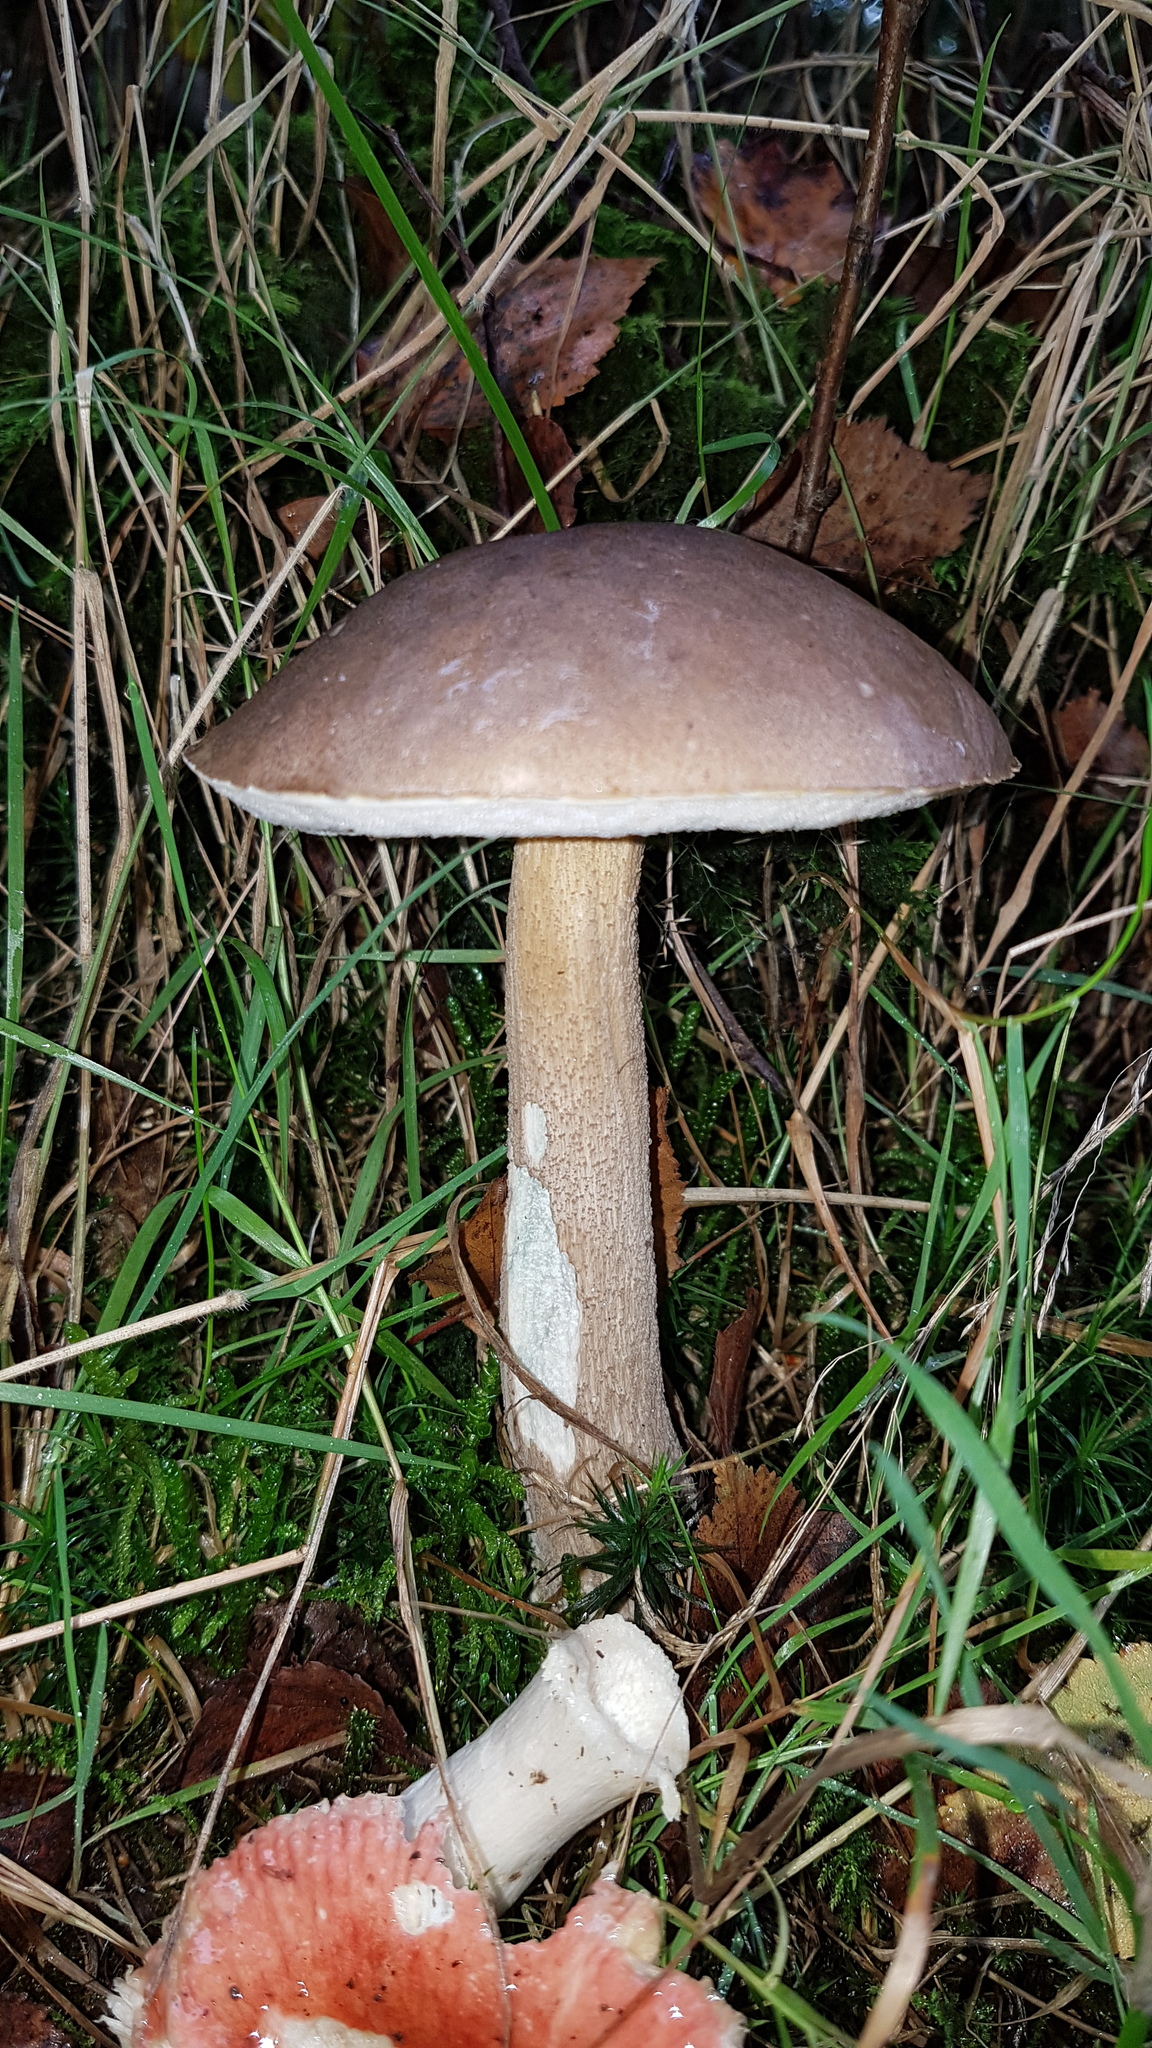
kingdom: Fungi
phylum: Basidiomycota
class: Agaricomycetes
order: Boletales
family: Boletaceae
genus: Leccinum
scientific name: Leccinum scabrum
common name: Blushing bolete
